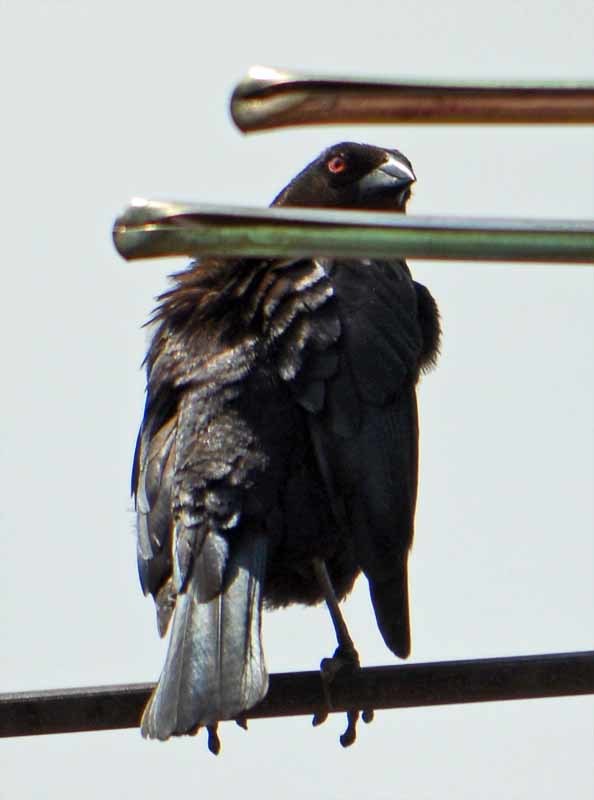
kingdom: Animalia
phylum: Chordata
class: Aves
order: Passeriformes
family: Icteridae
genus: Molothrus
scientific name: Molothrus aeneus
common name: Bronzed cowbird
